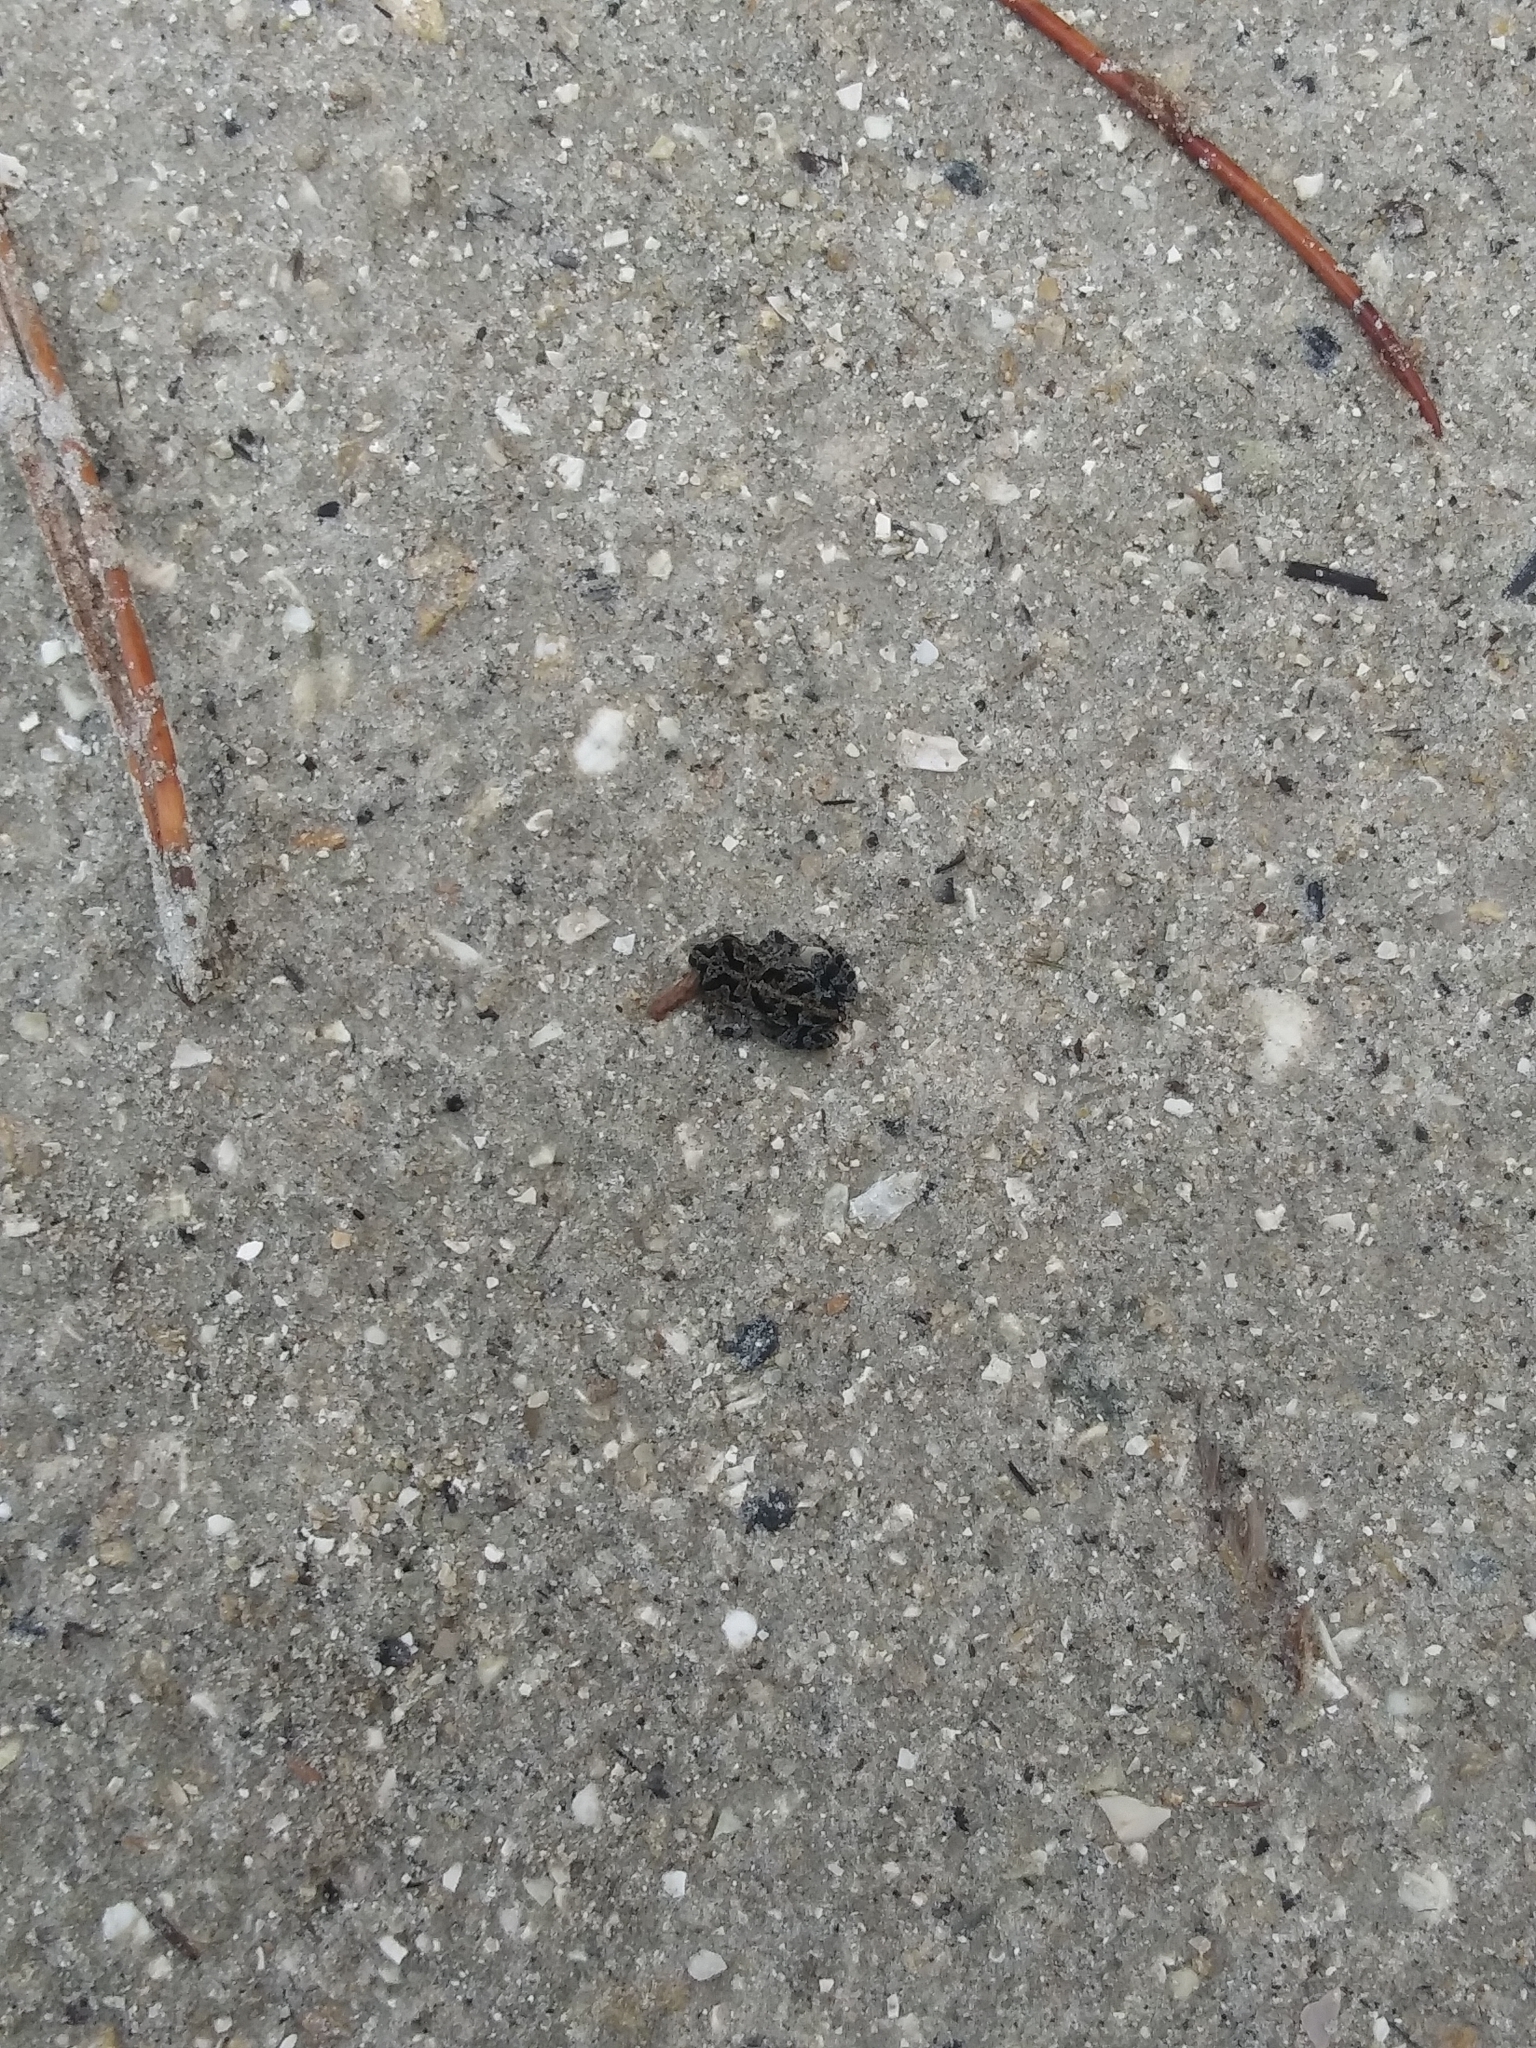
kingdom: Animalia
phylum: Chordata
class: Amphibia
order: Anura
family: Bufonidae
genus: Anaxyrus
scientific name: Anaxyrus quercicus
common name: Oak toad
